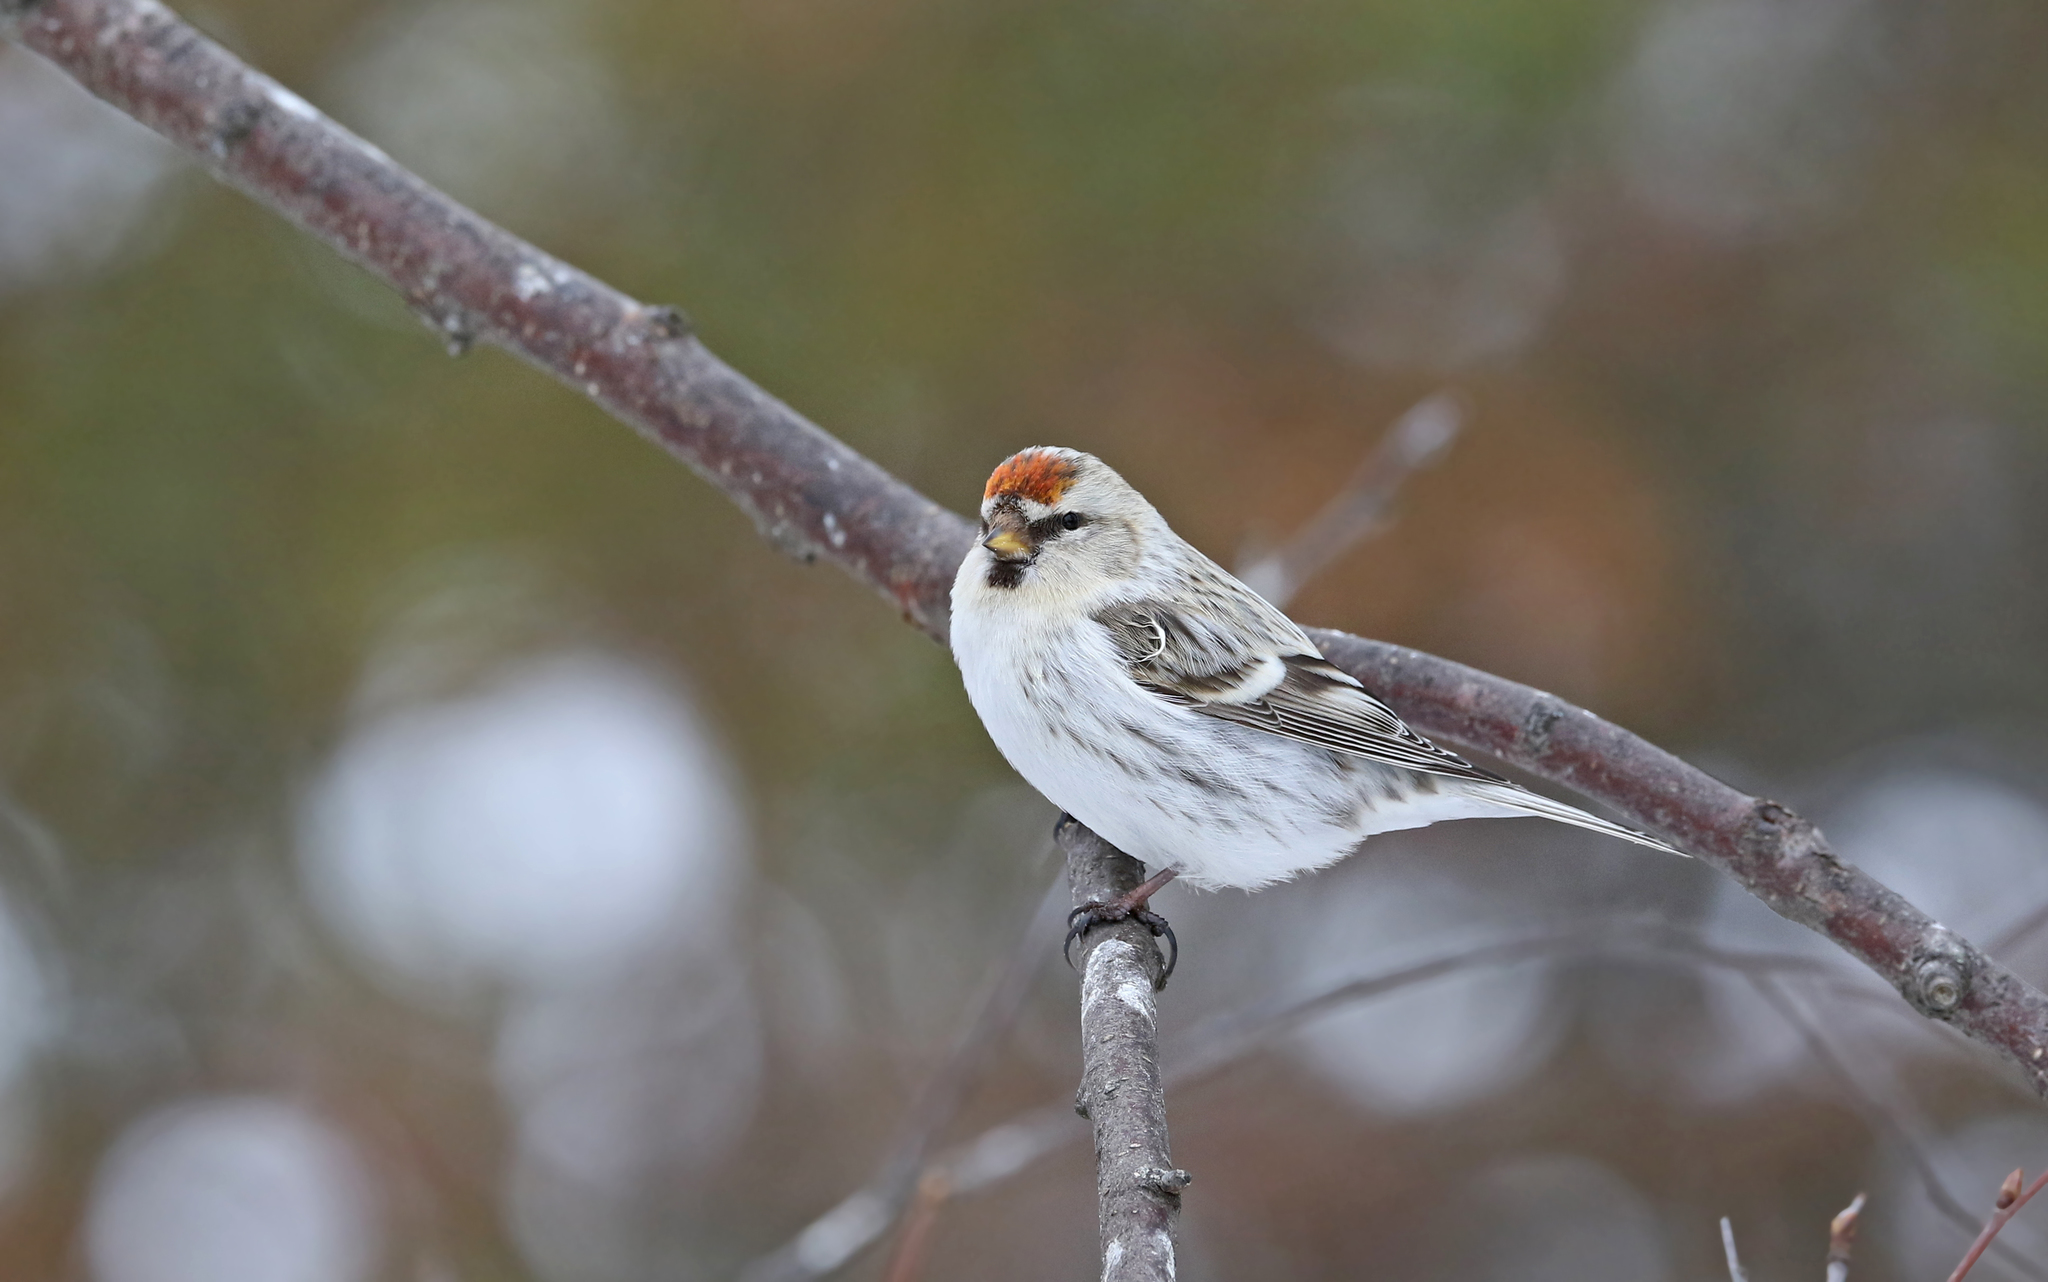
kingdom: Animalia
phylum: Chordata
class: Aves
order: Passeriformes
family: Fringillidae
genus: Acanthis
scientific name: Acanthis hornemanni
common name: Arctic redpoll
